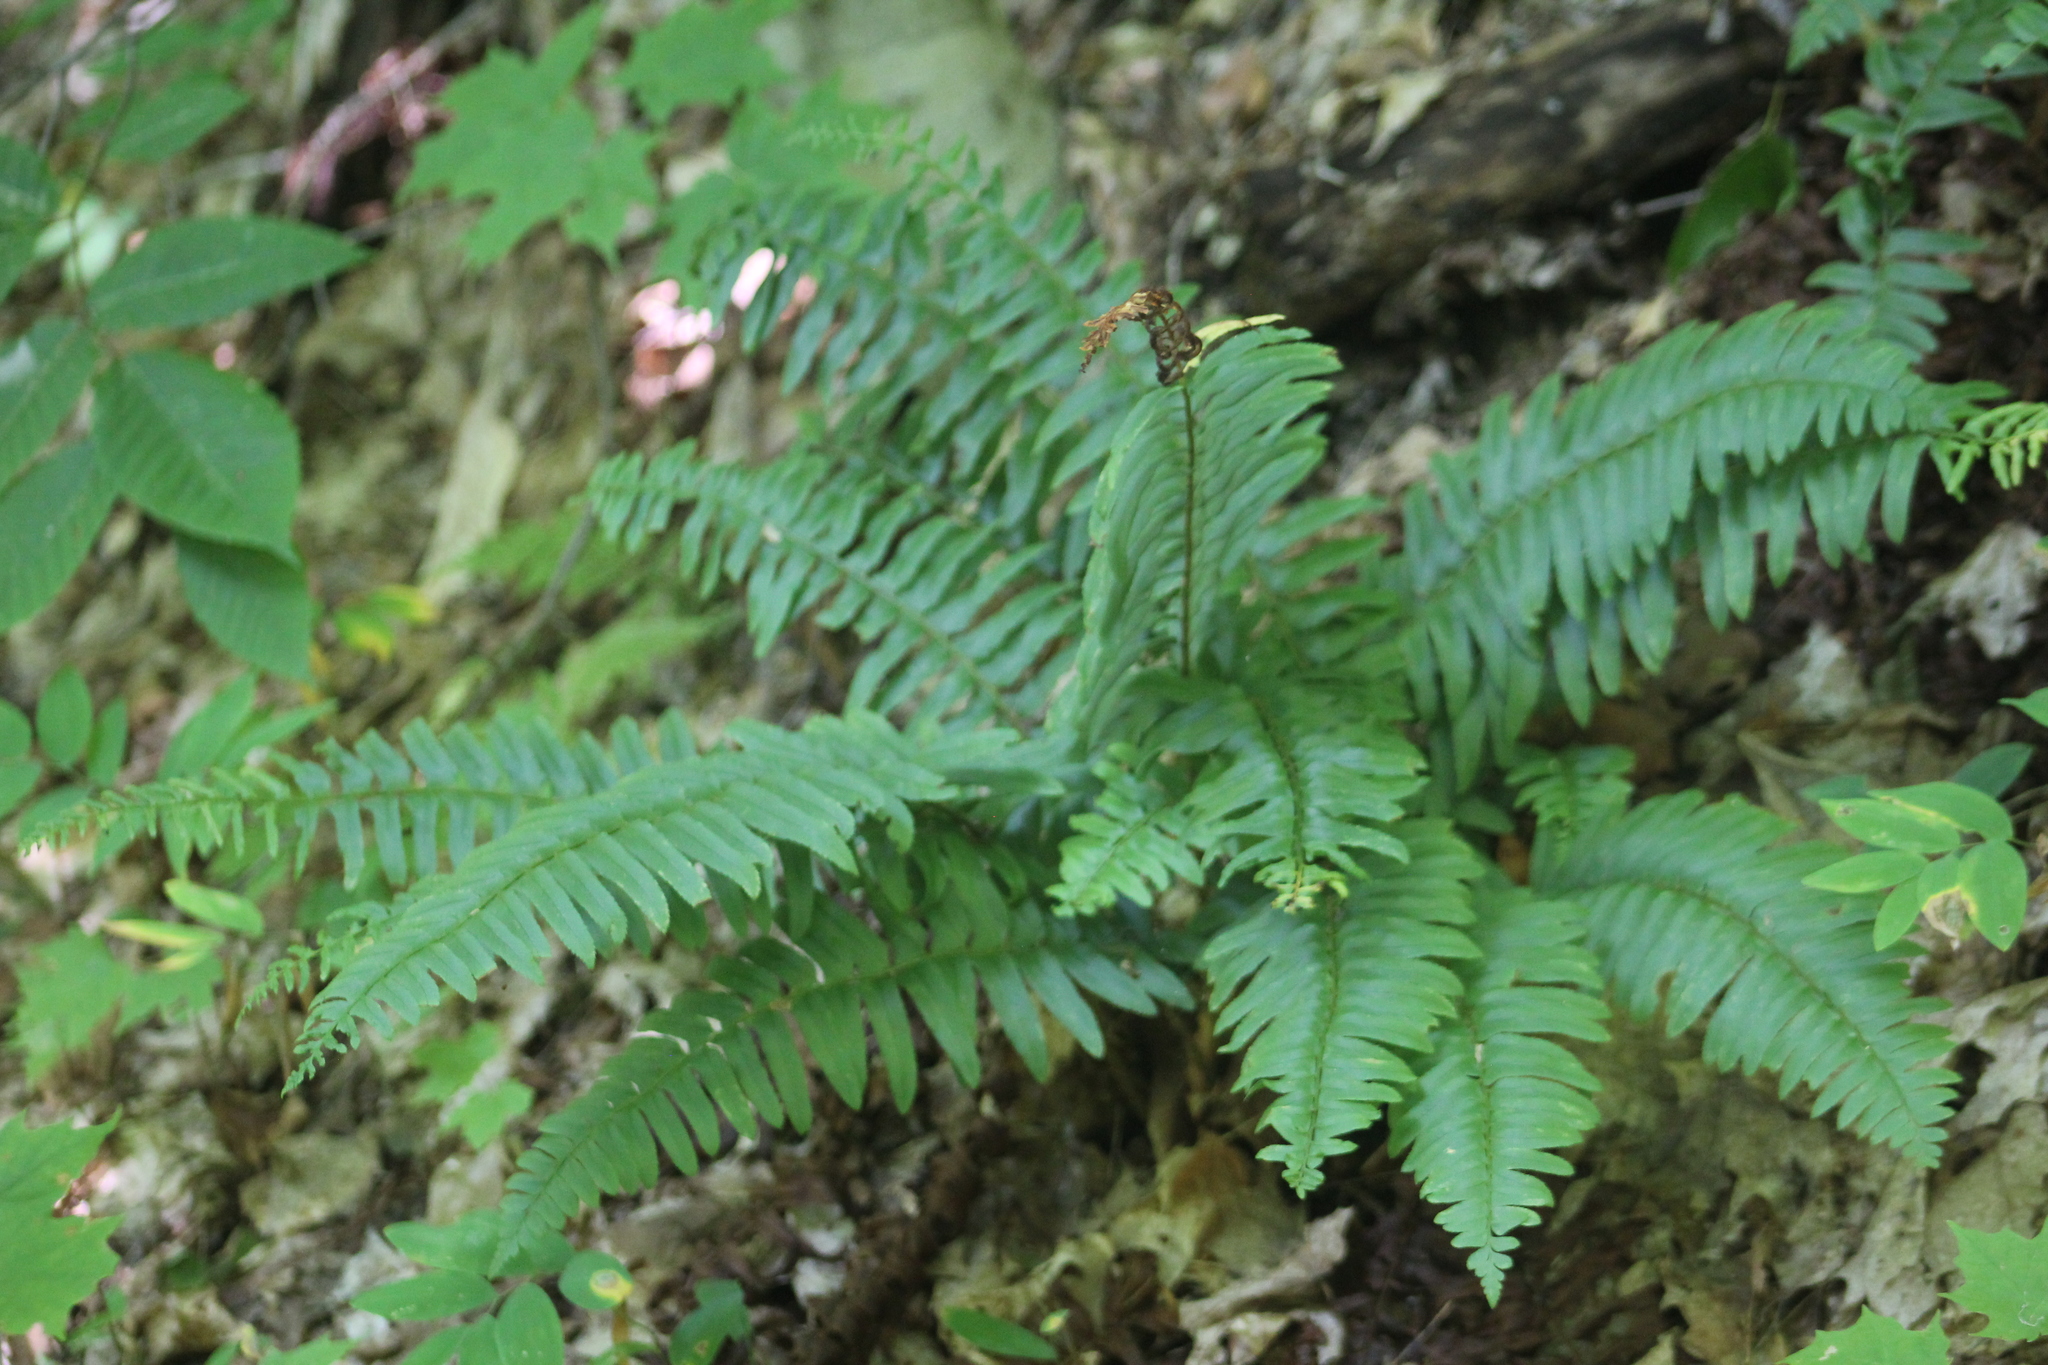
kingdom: Plantae
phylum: Tracheophyta
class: Polypodiopsida
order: Polypodiales
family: Dryopteridaceae
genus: Polystichum
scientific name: Polystichum acrostichoides
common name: Christmas fern
